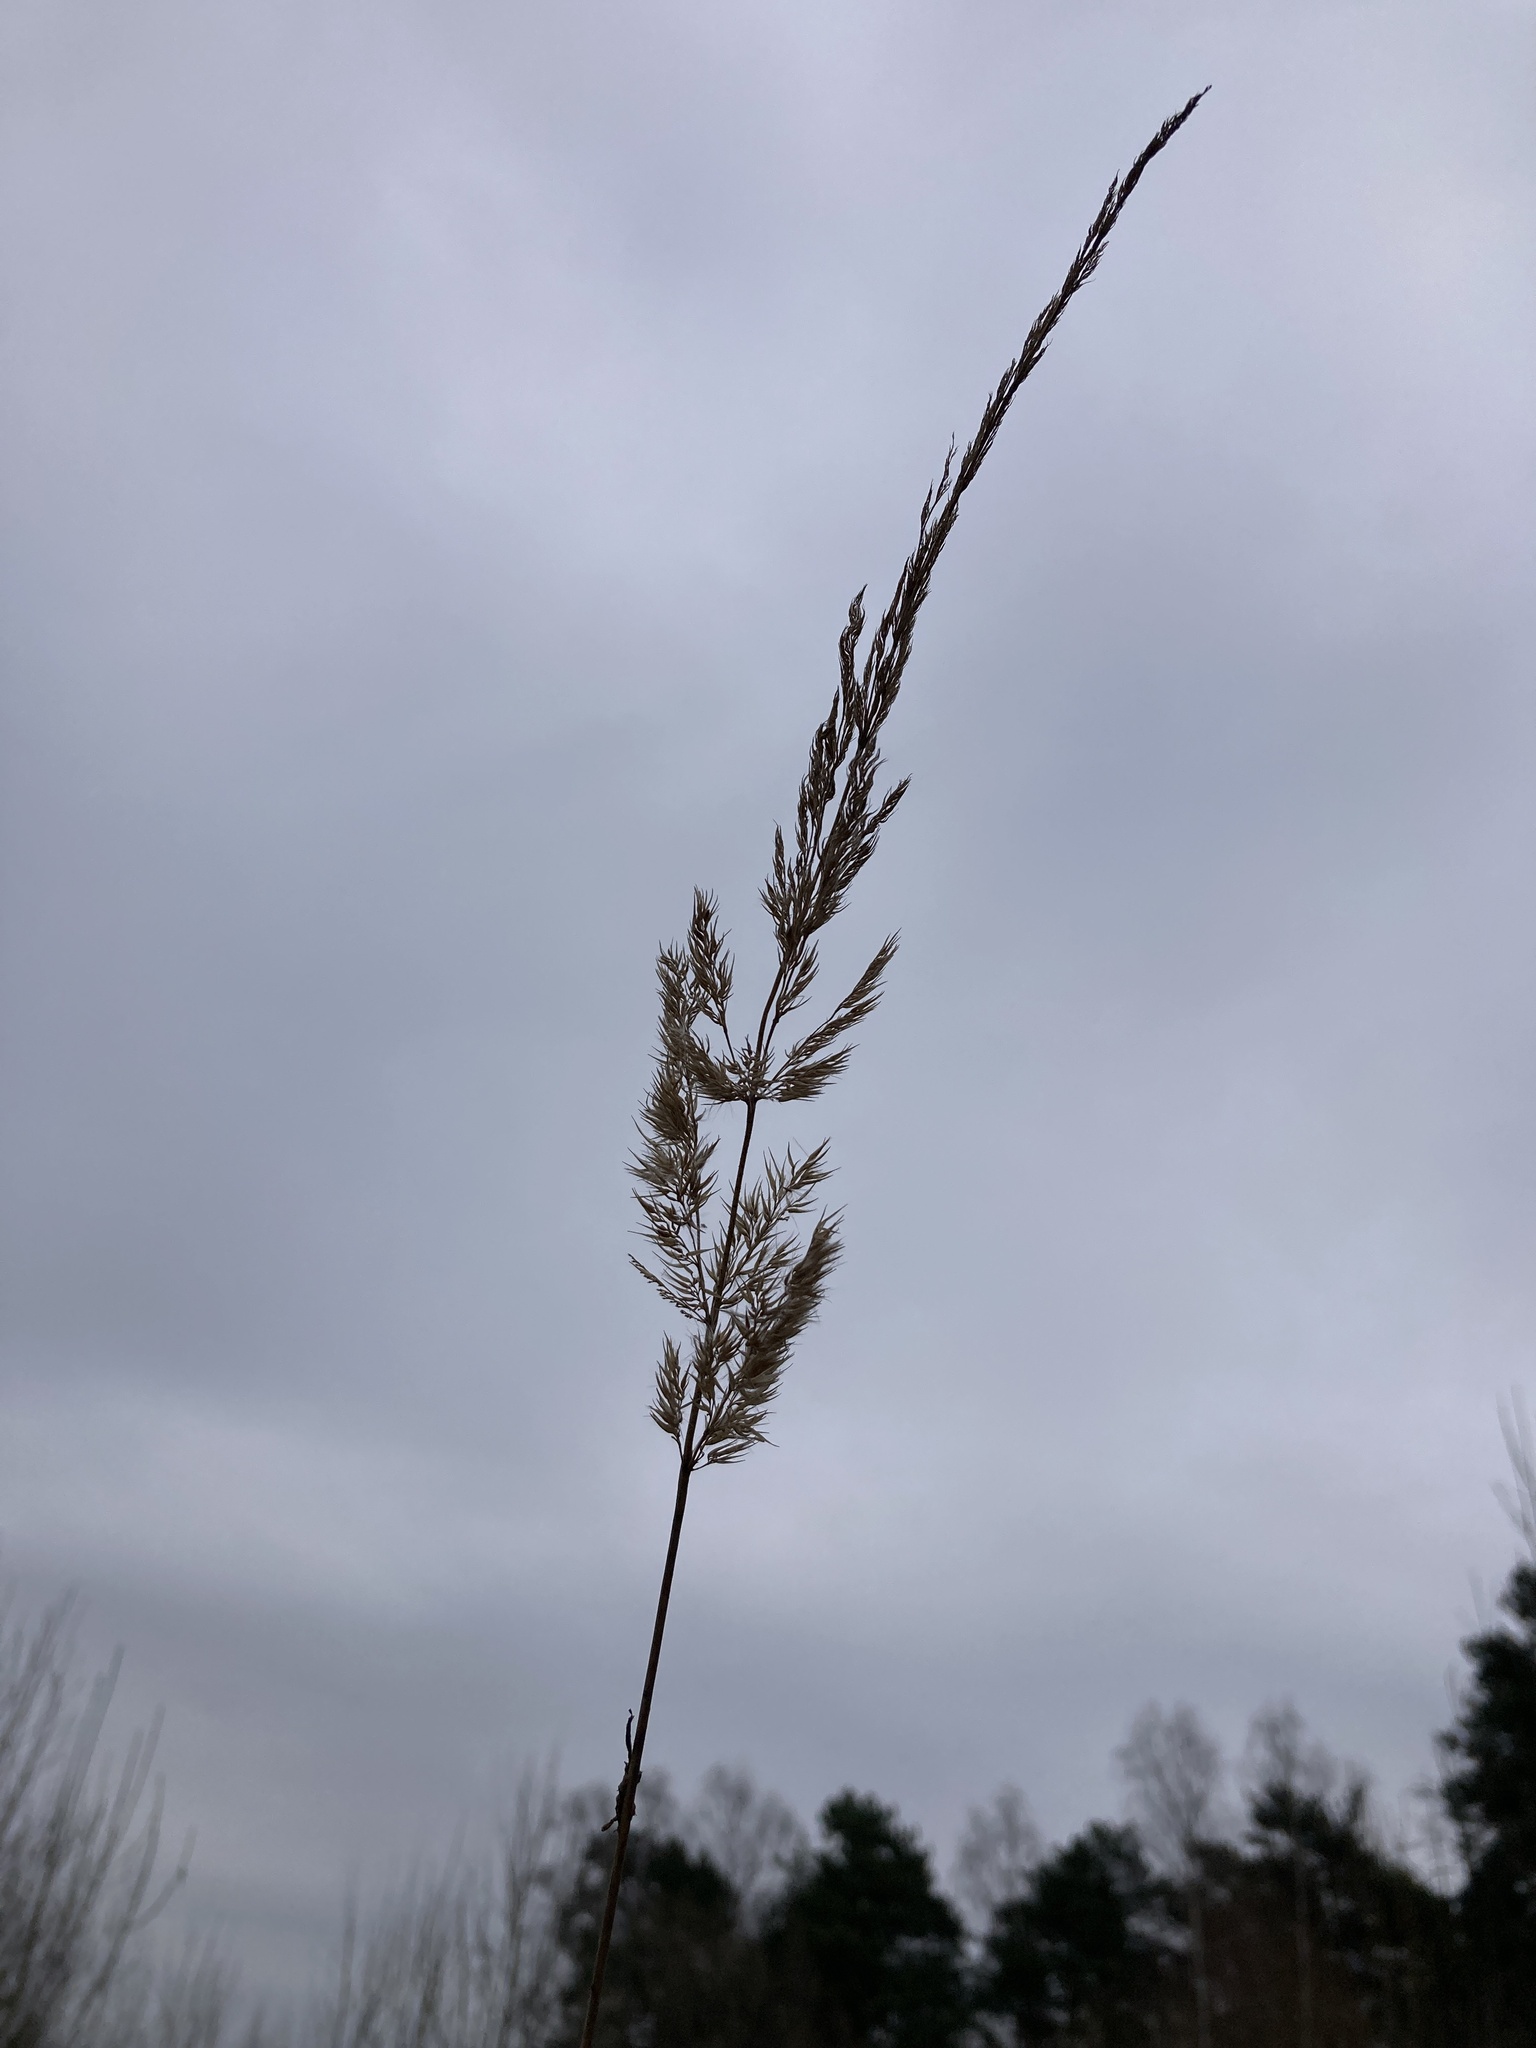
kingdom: Plantae
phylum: Tracheophyta
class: Liliopsida
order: Poales
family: Poaceae
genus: Calamagrostis
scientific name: Calamagrostis epigejos
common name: Wood small-reed
